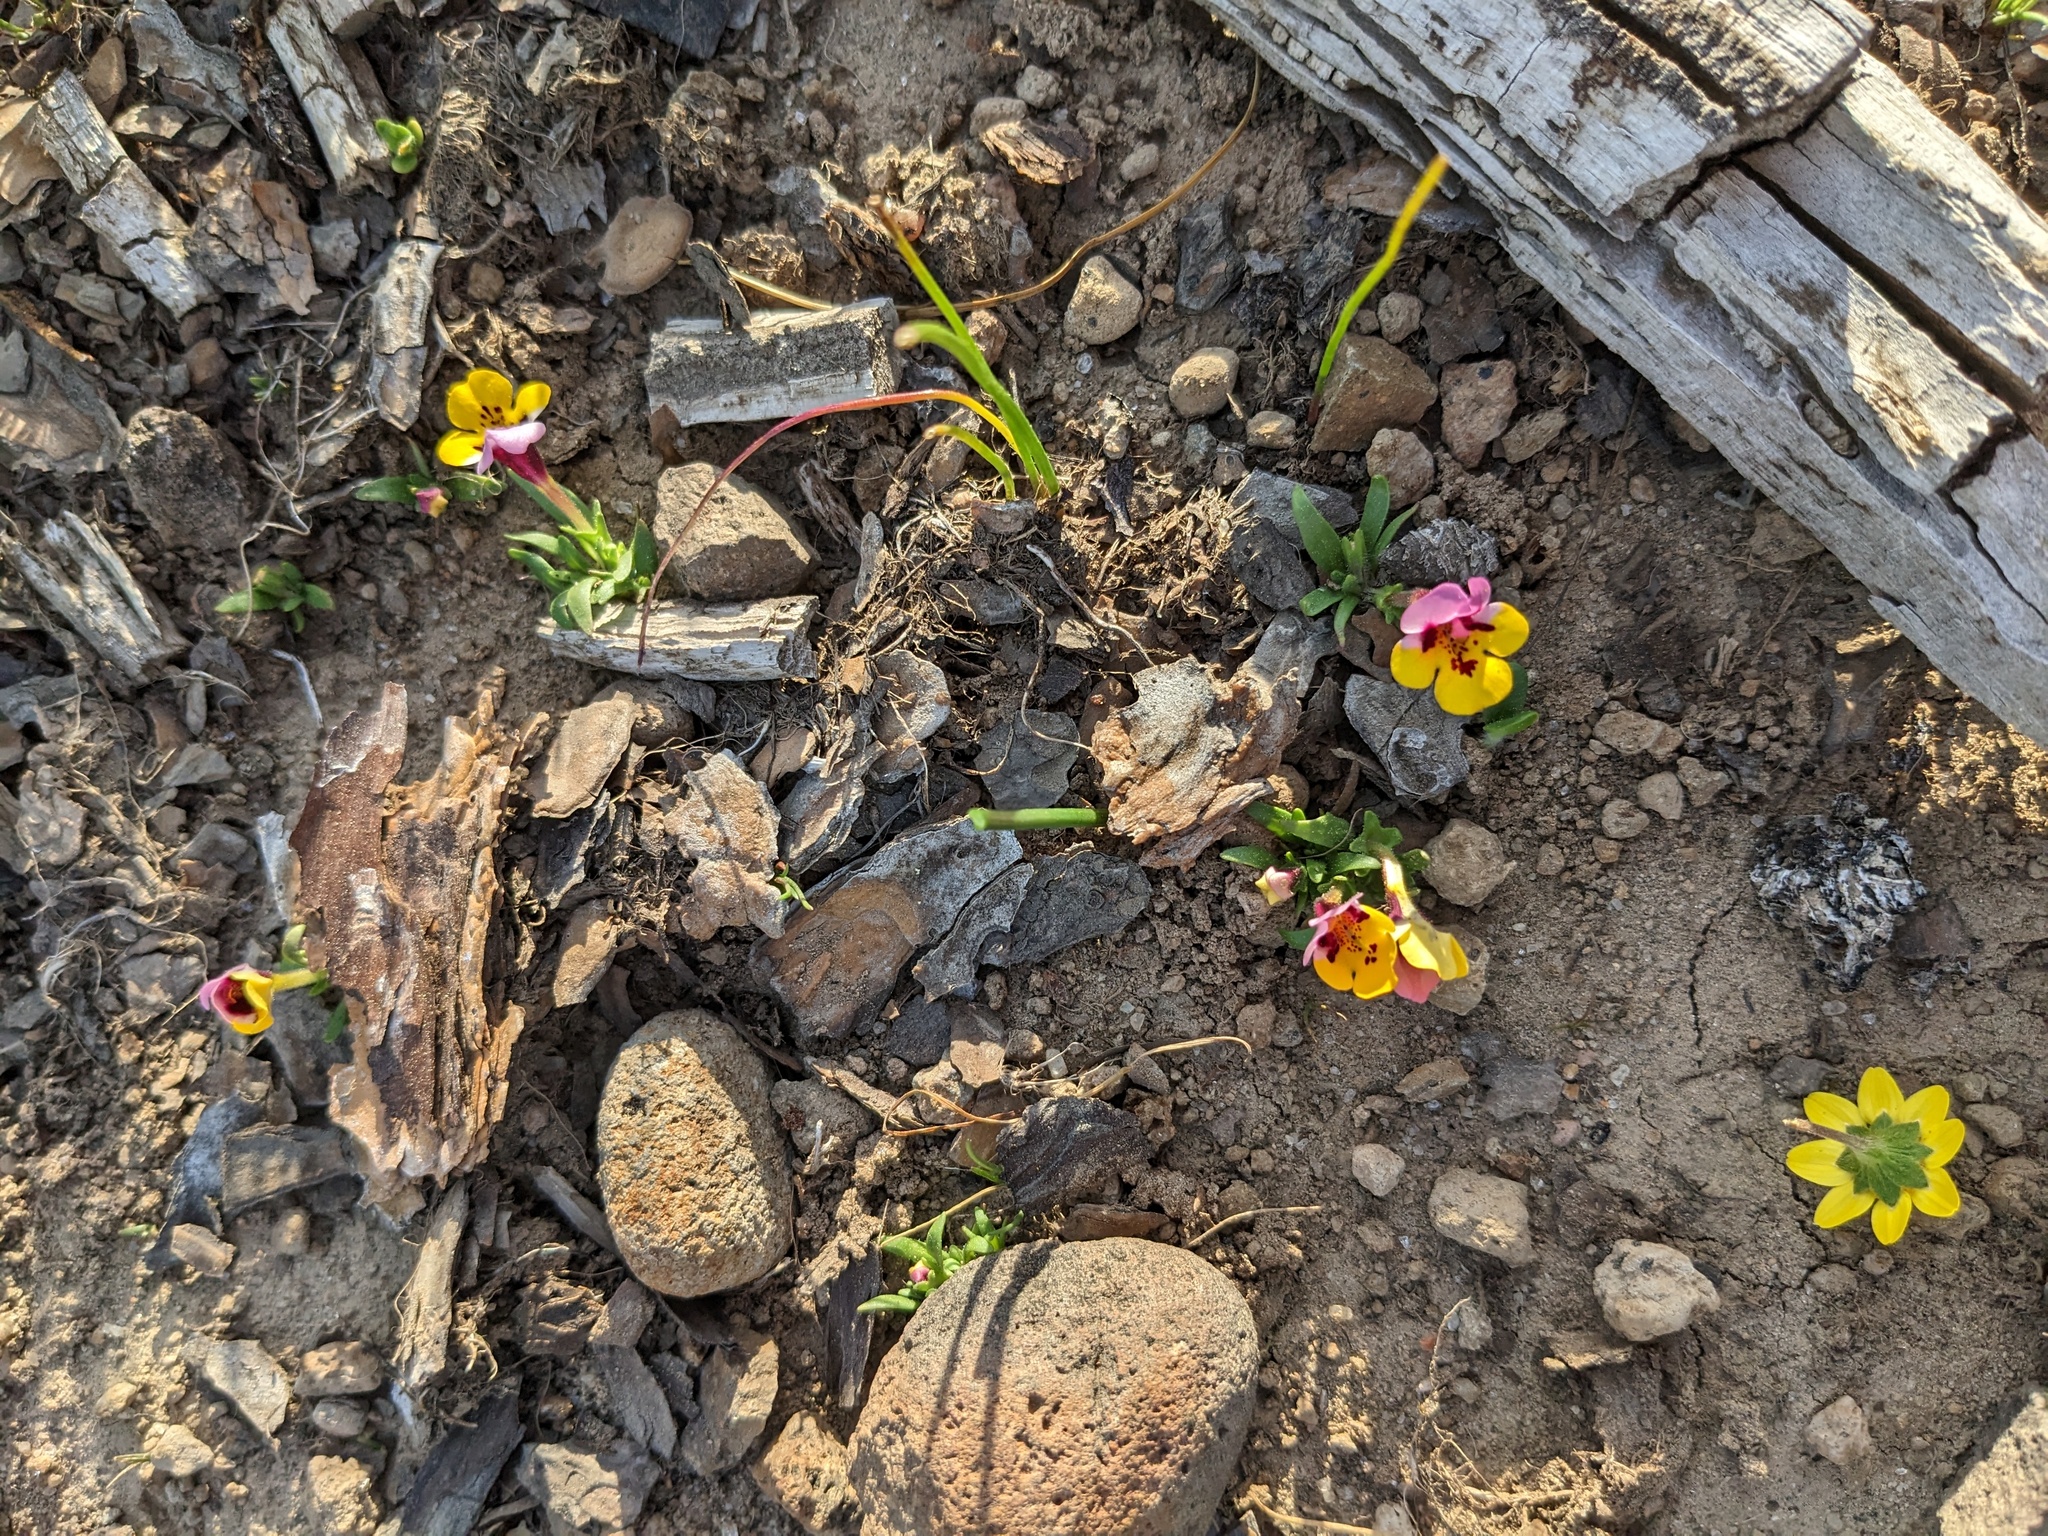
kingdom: Plantae
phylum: Tracheophyta
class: Magnoliopsida
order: Lamiales
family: Phrymaceae
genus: Diplacus
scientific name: Diplacus pulchellus
